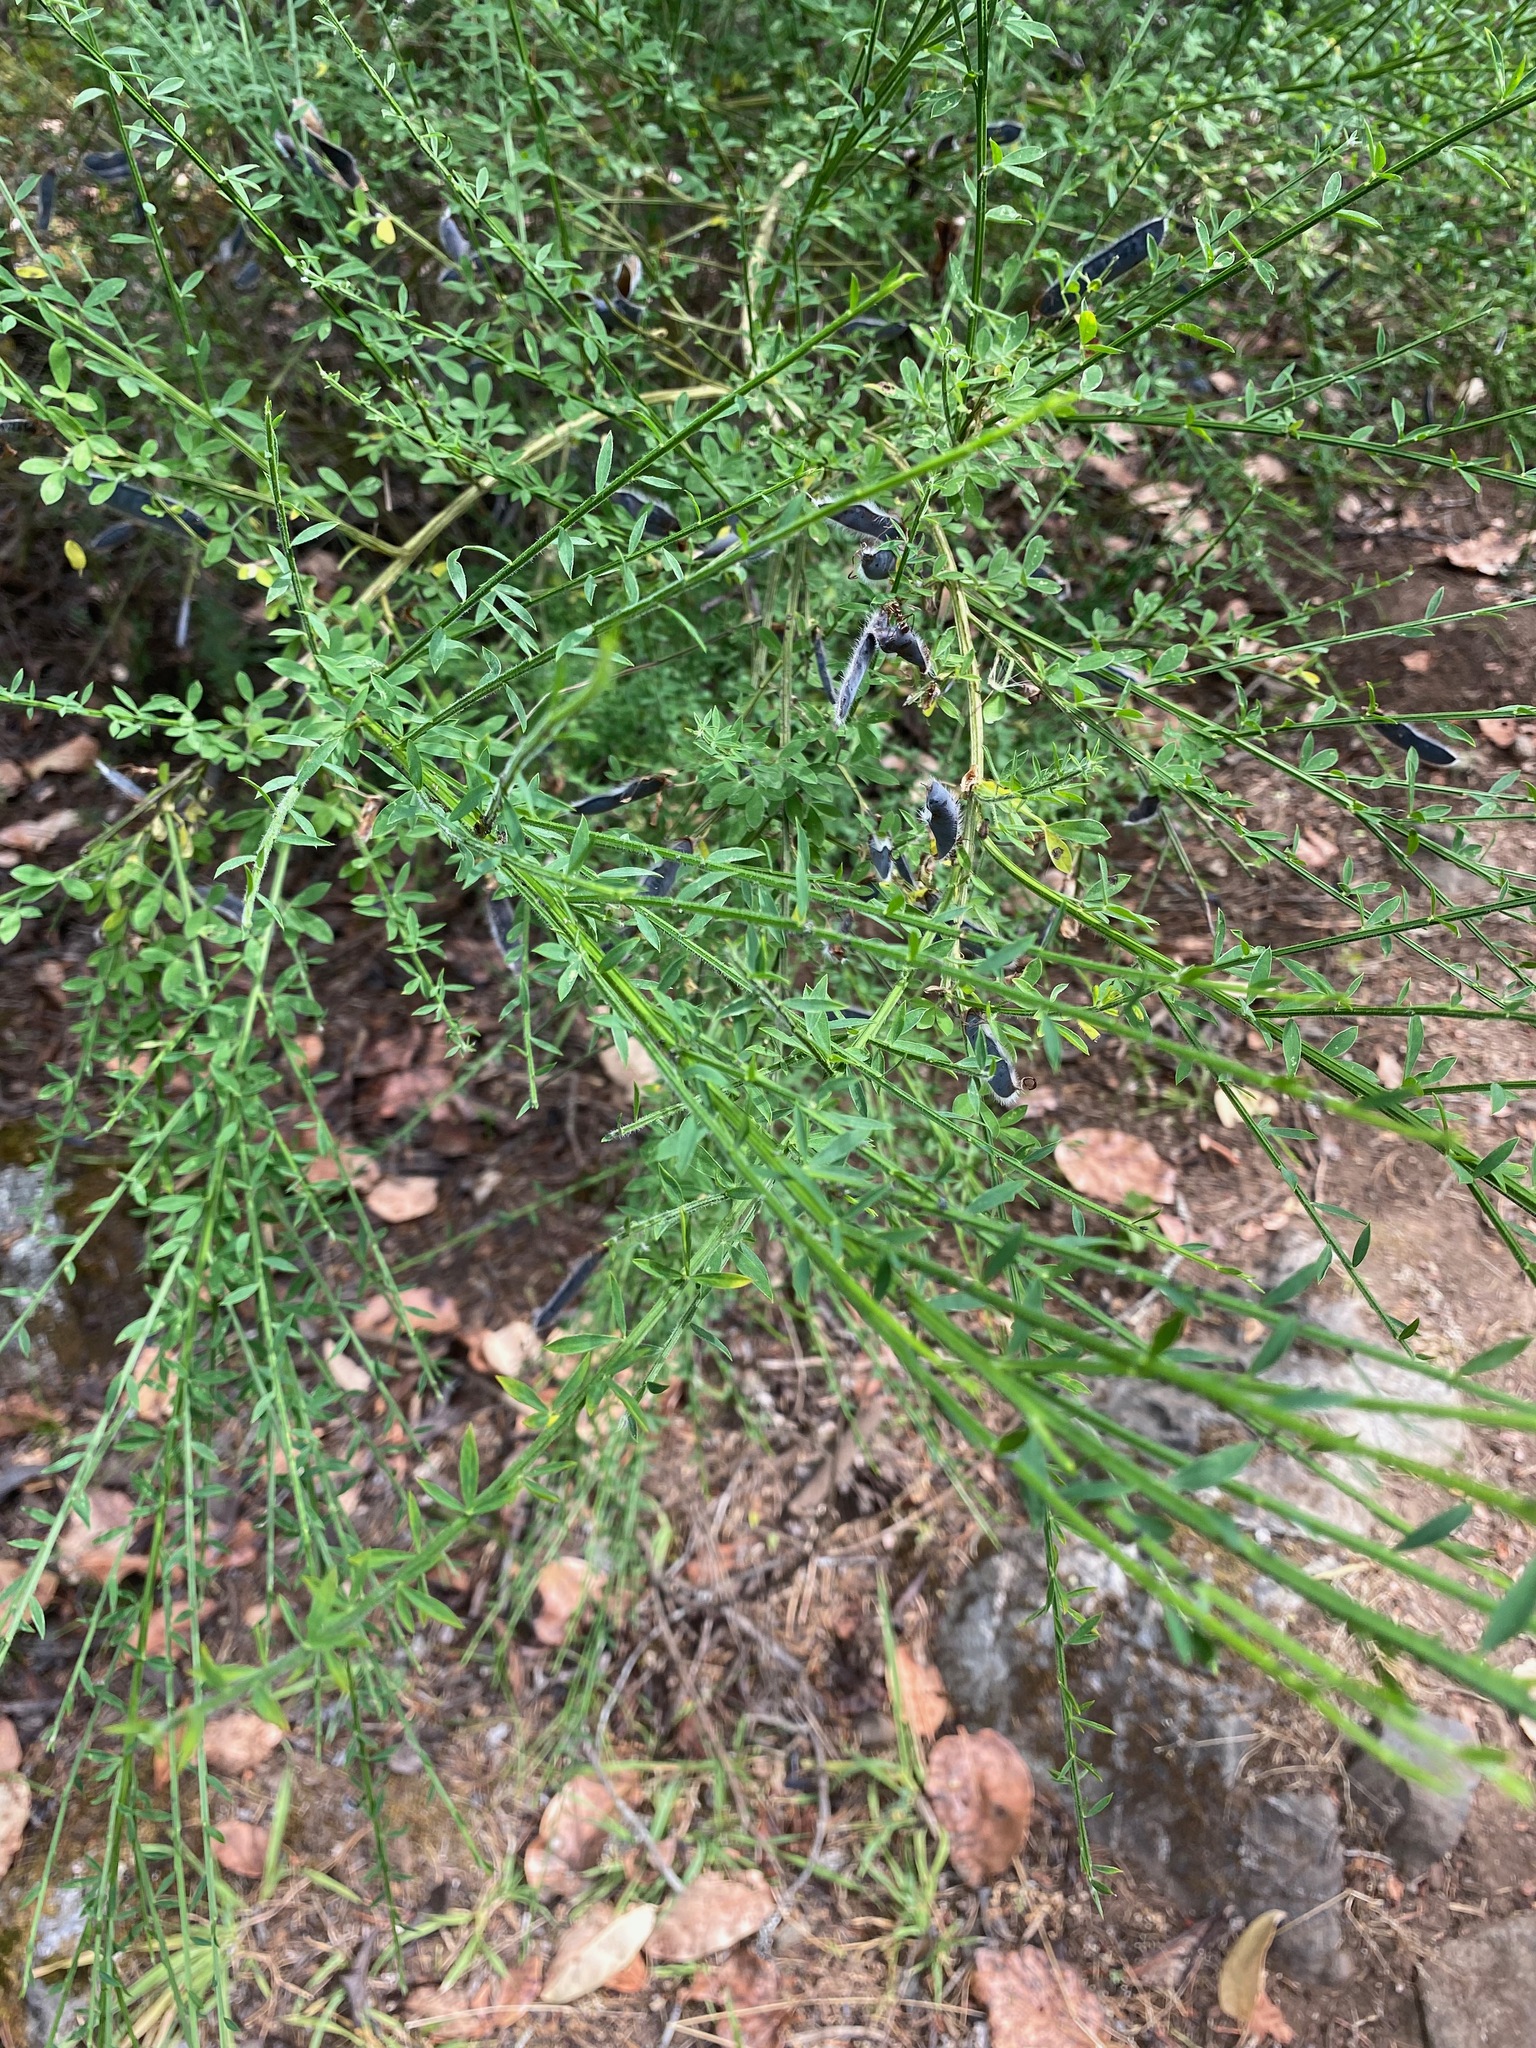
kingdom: Plantae
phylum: Tracheophyta
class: Magnoliopsida
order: Fabales
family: Fabaceae
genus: Cytisus
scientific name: Cytisus scoparius
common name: Scotch broom
